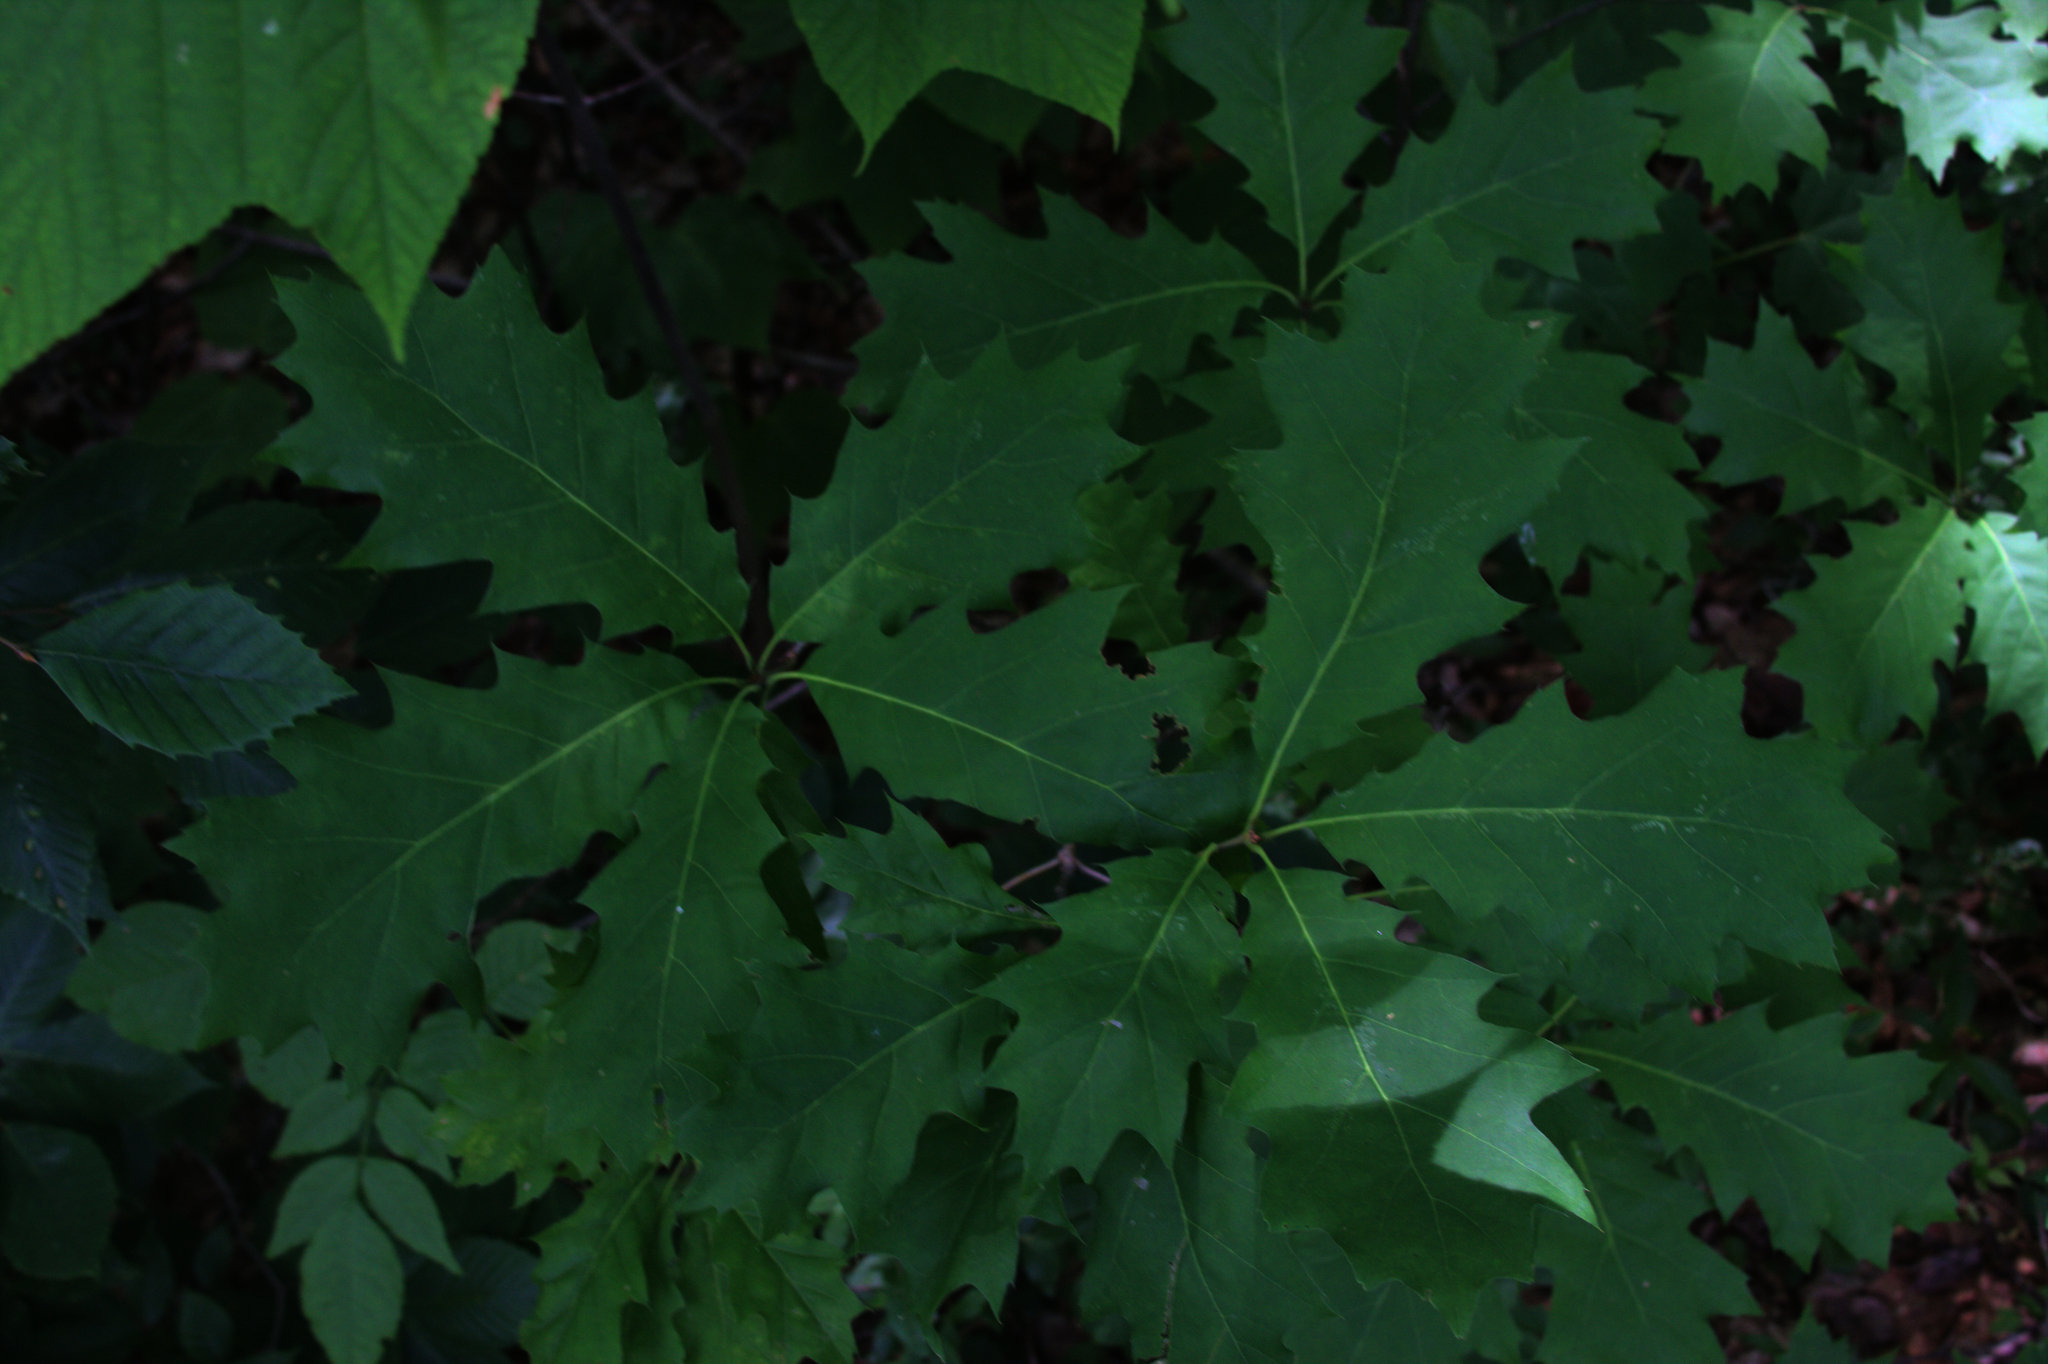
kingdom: Plantae
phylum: Tracheophyta
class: Magnoliopsida
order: Fagales
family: Fagaceae
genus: Quercus
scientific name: Quercus rubra
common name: Red oak
